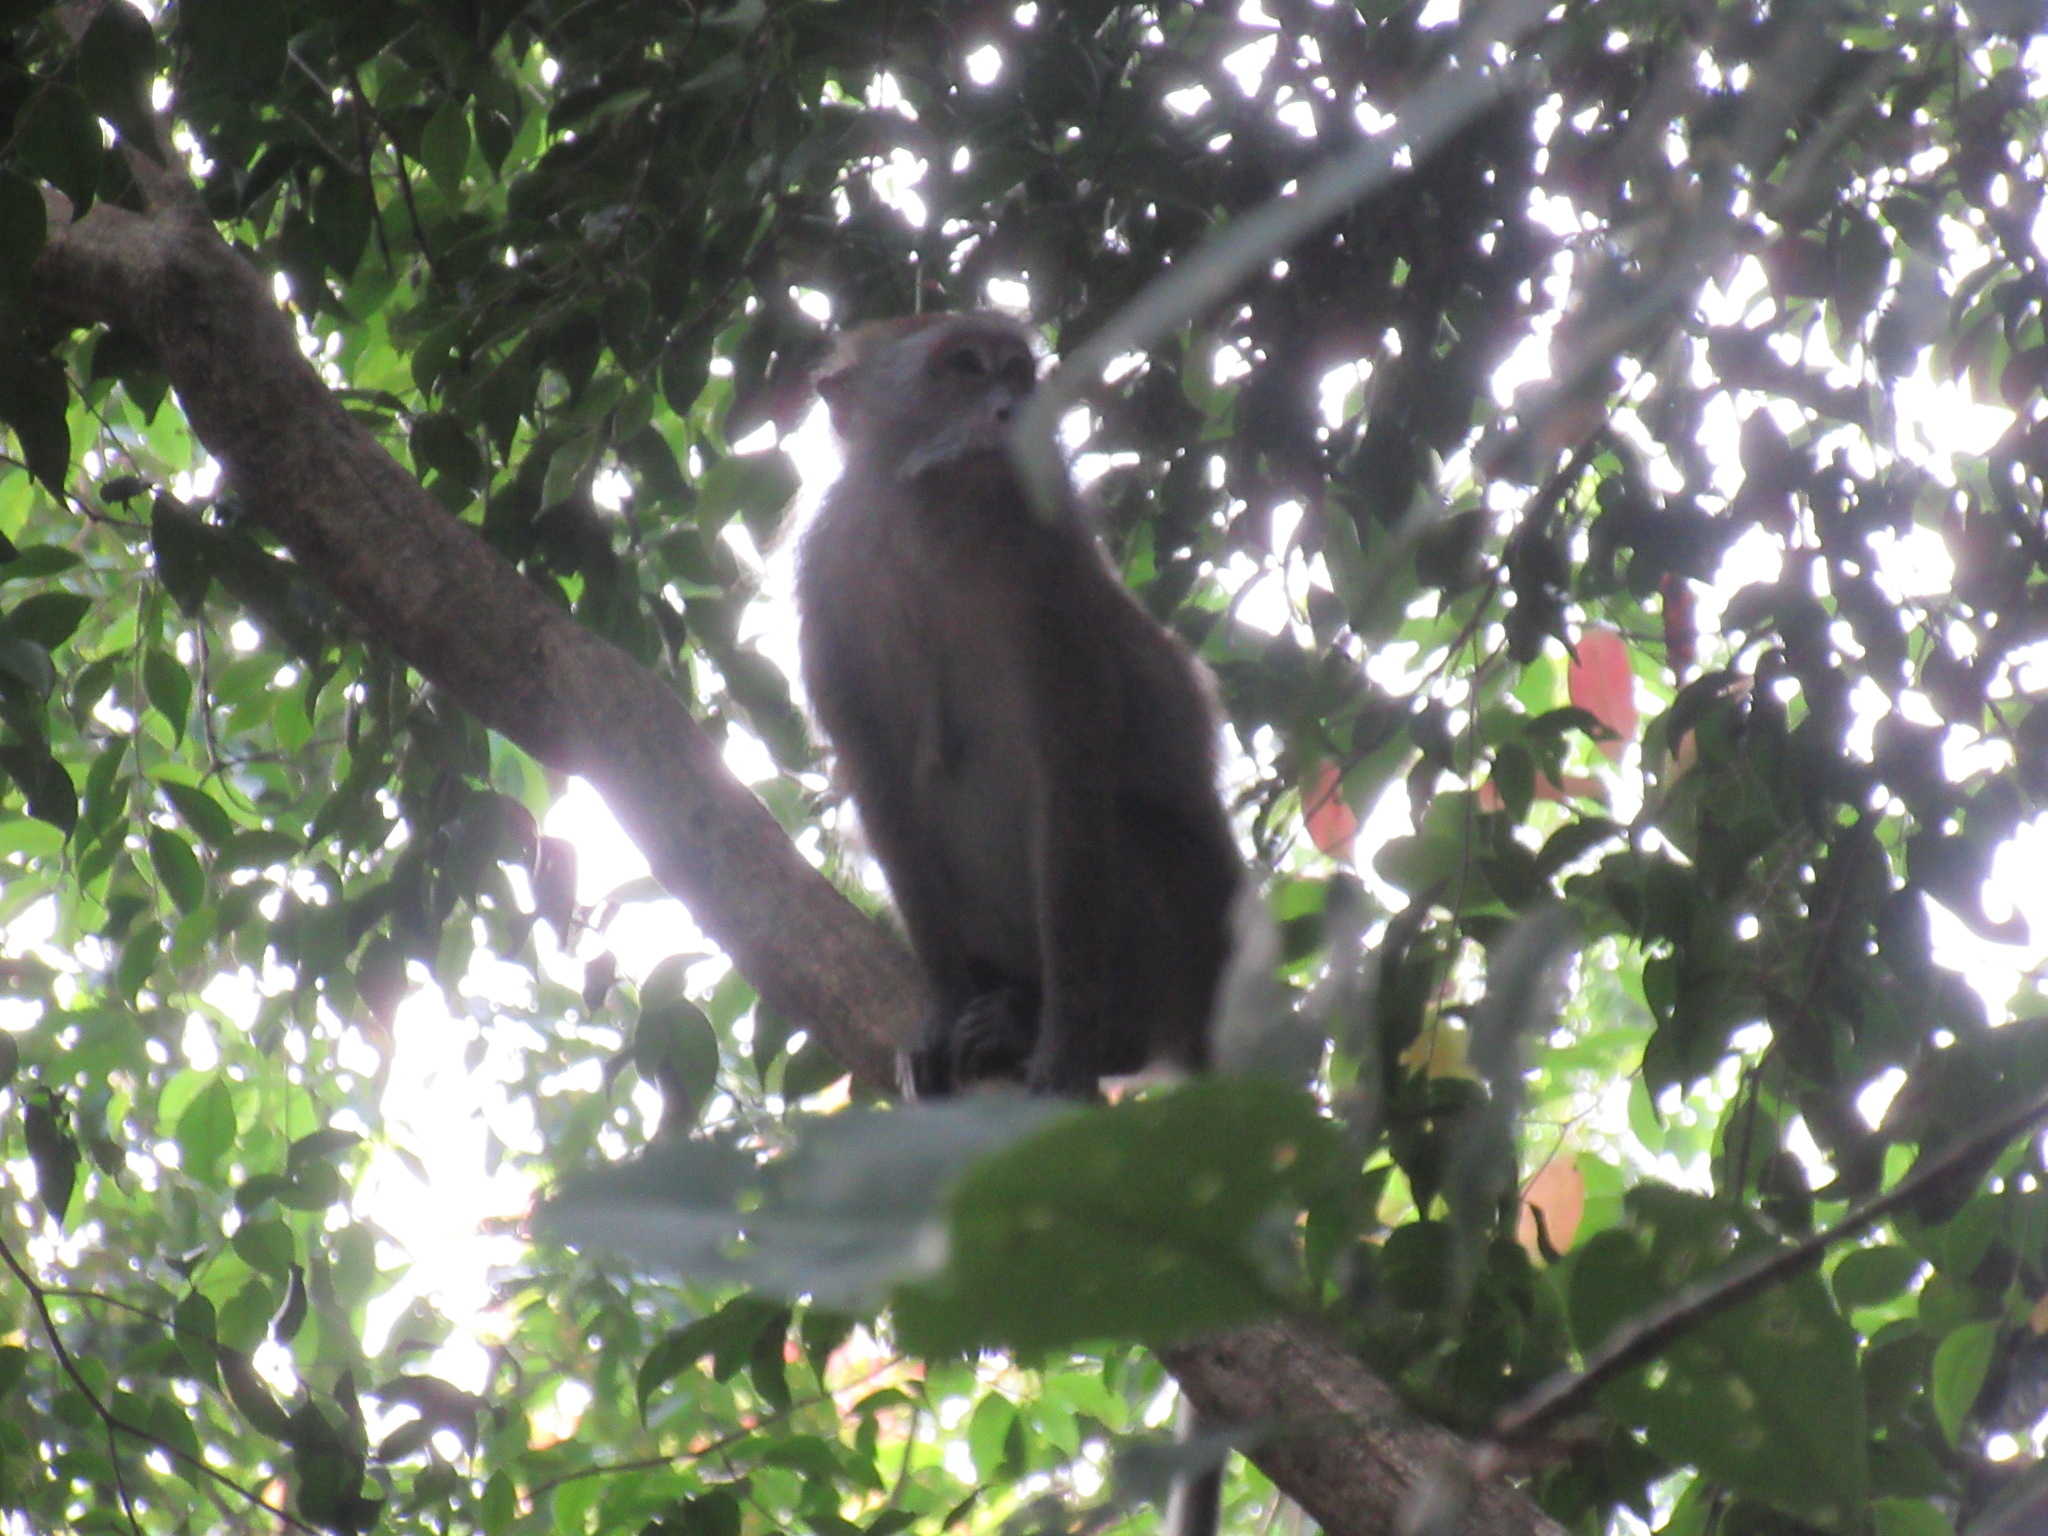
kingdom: Animalia
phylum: Chordata
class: Mammalia
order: Primates
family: Cercopithecidae
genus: Macaca
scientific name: Macaca fascicularis
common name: Crab-eating macaque
